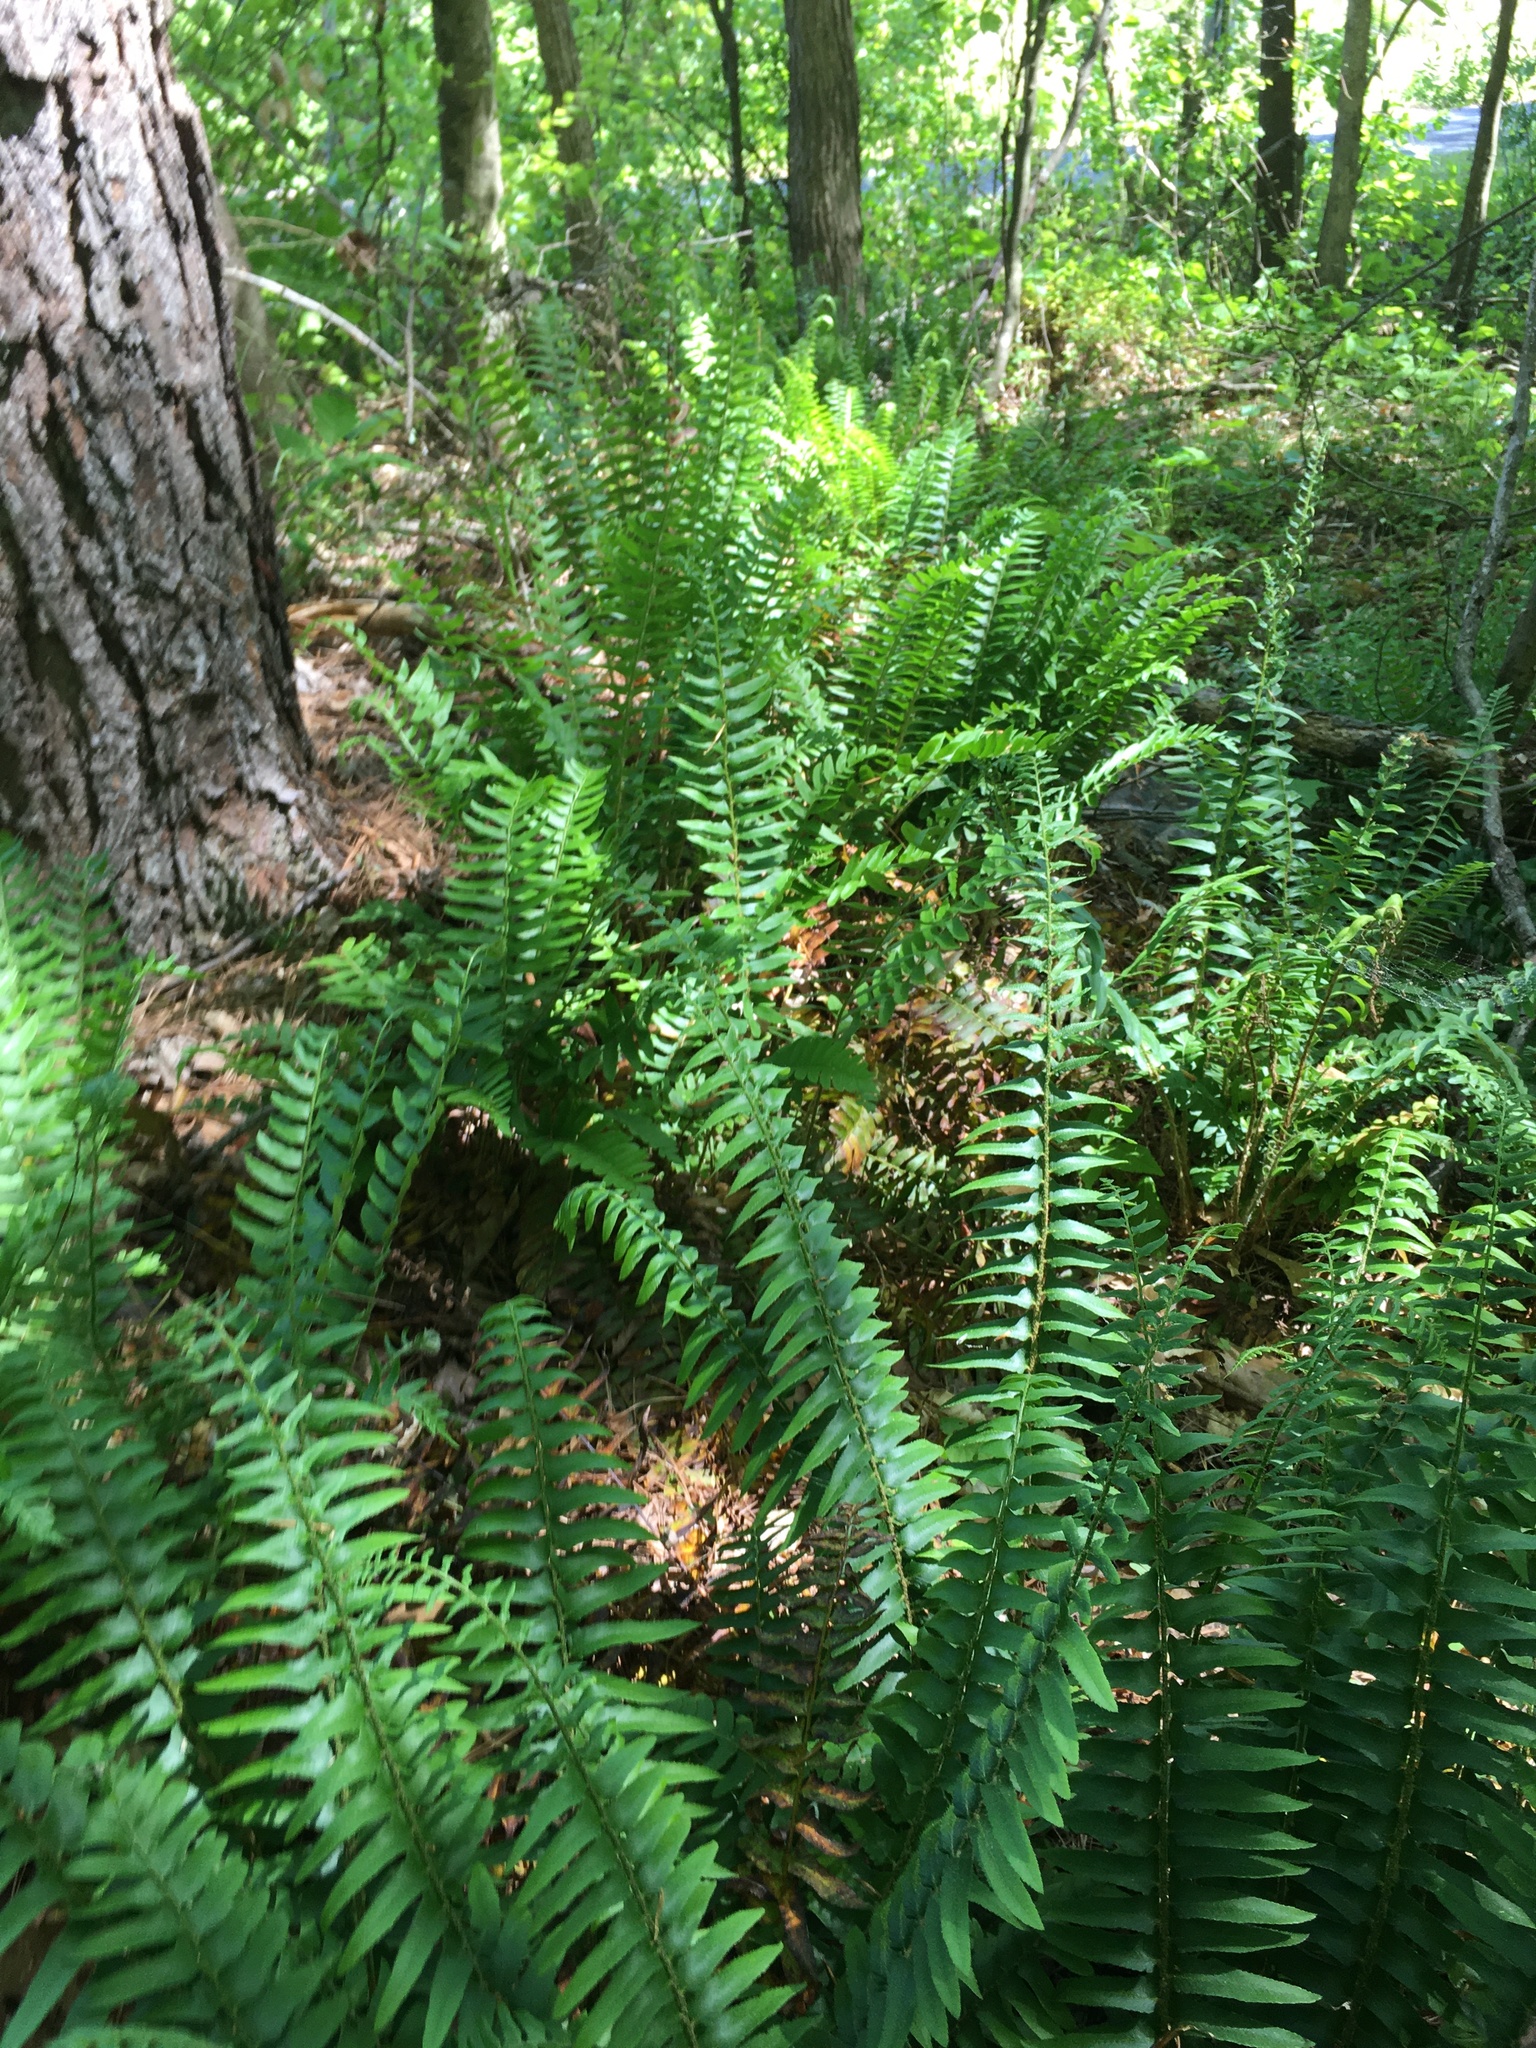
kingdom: Plantae
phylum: Tracheophyta
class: Polypodiopsida
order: Polypodiales
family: Dryopteridaceae
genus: Polystichum
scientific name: Polystichum acrostichoides
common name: Christmas fern
